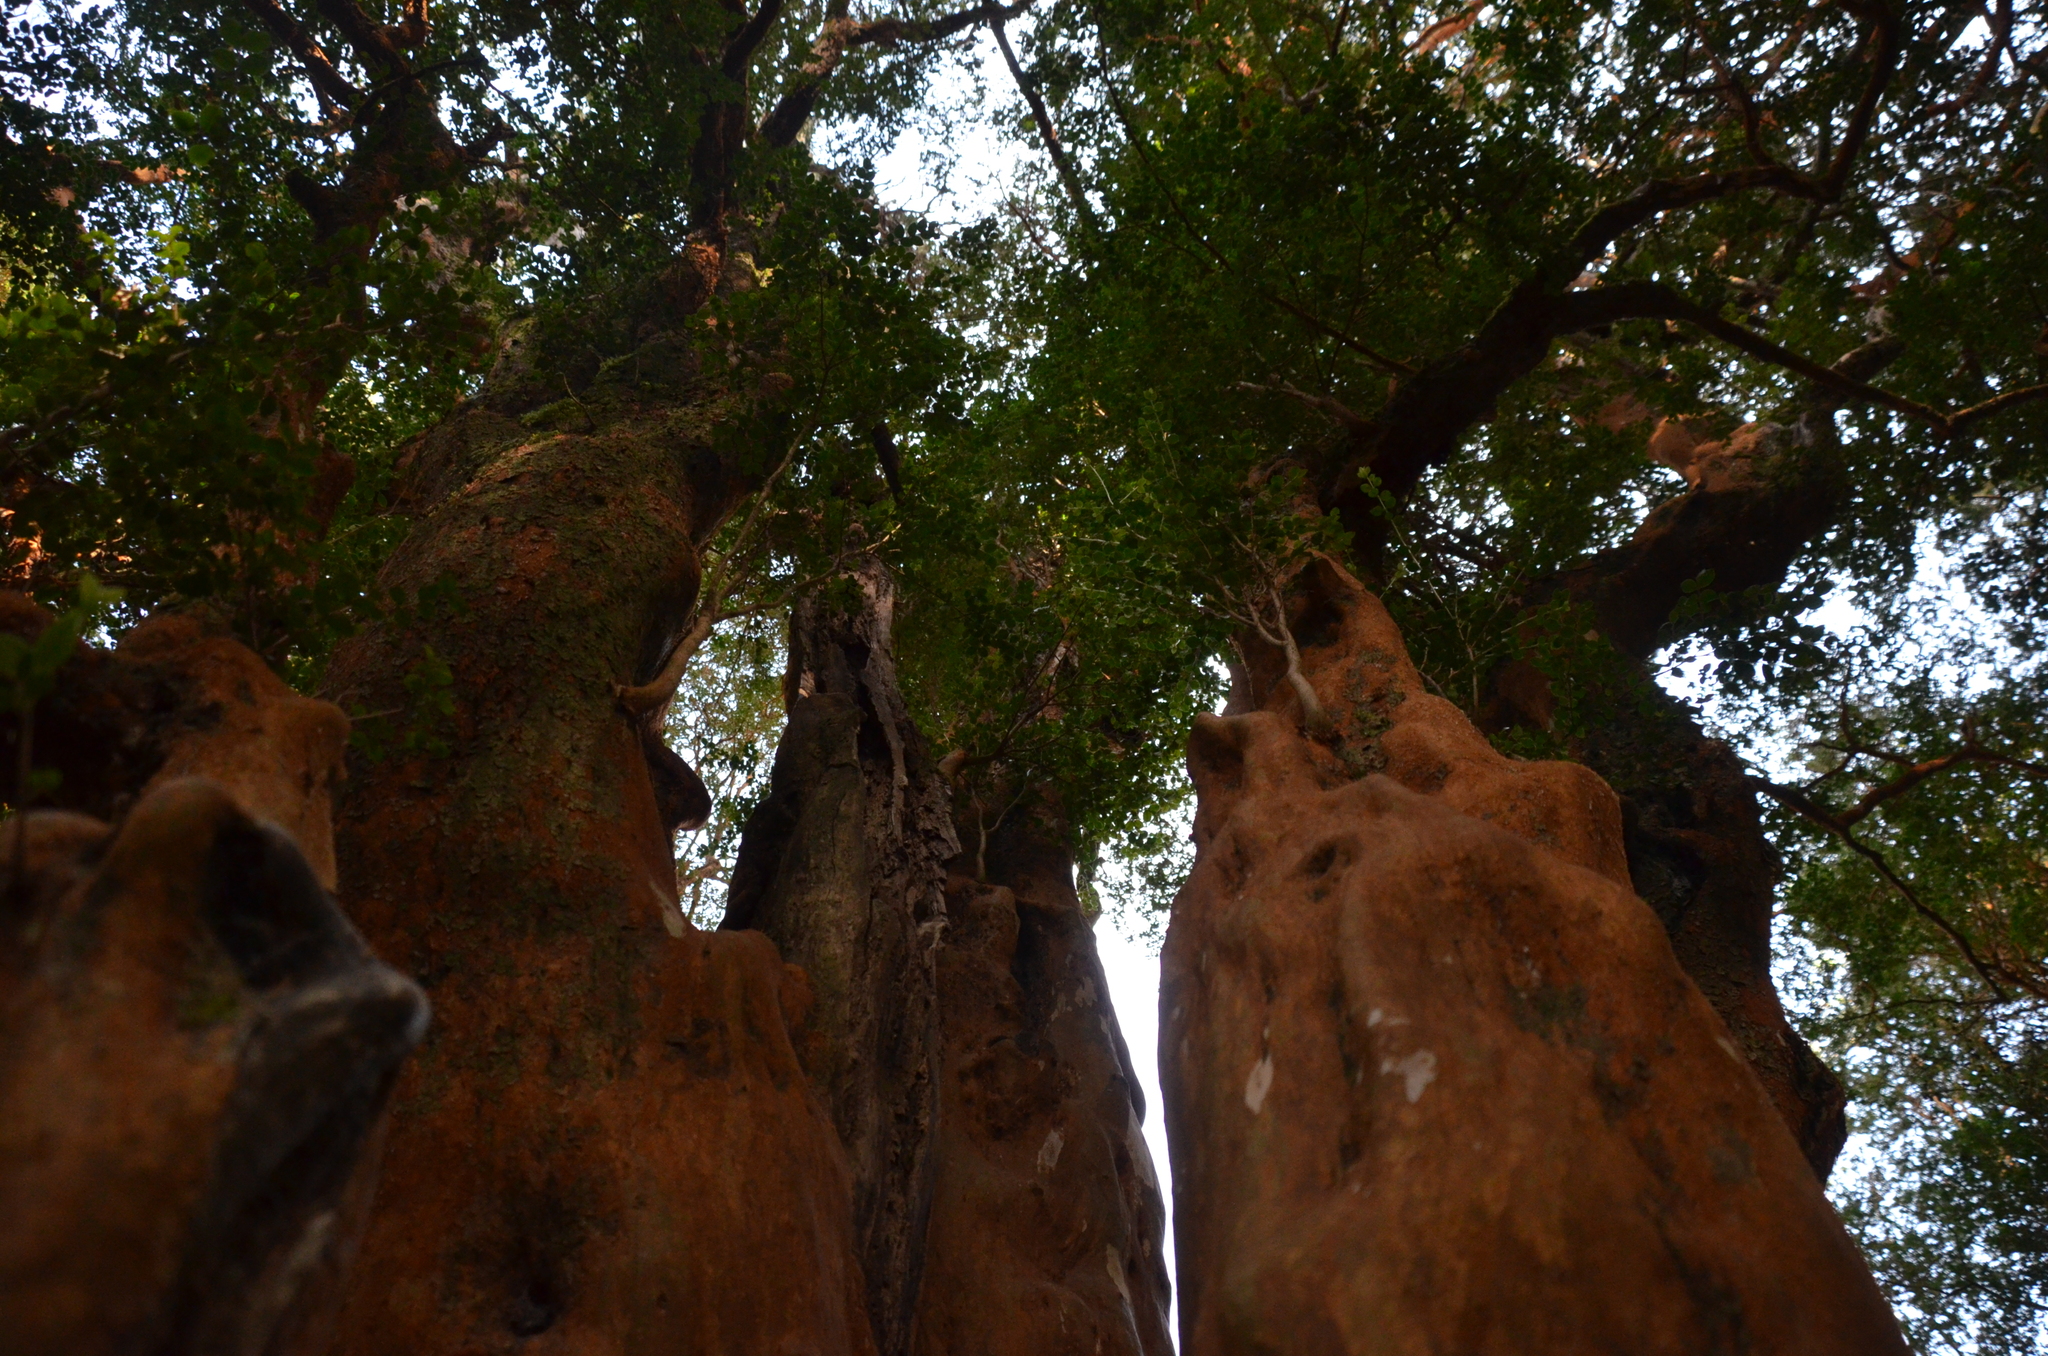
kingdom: Plantae
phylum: Tracheophyta
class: Magnoliopsida
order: Myrtales
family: Myrtaceae
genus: Luma
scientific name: Luma apiculata
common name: Chilean myrtle
